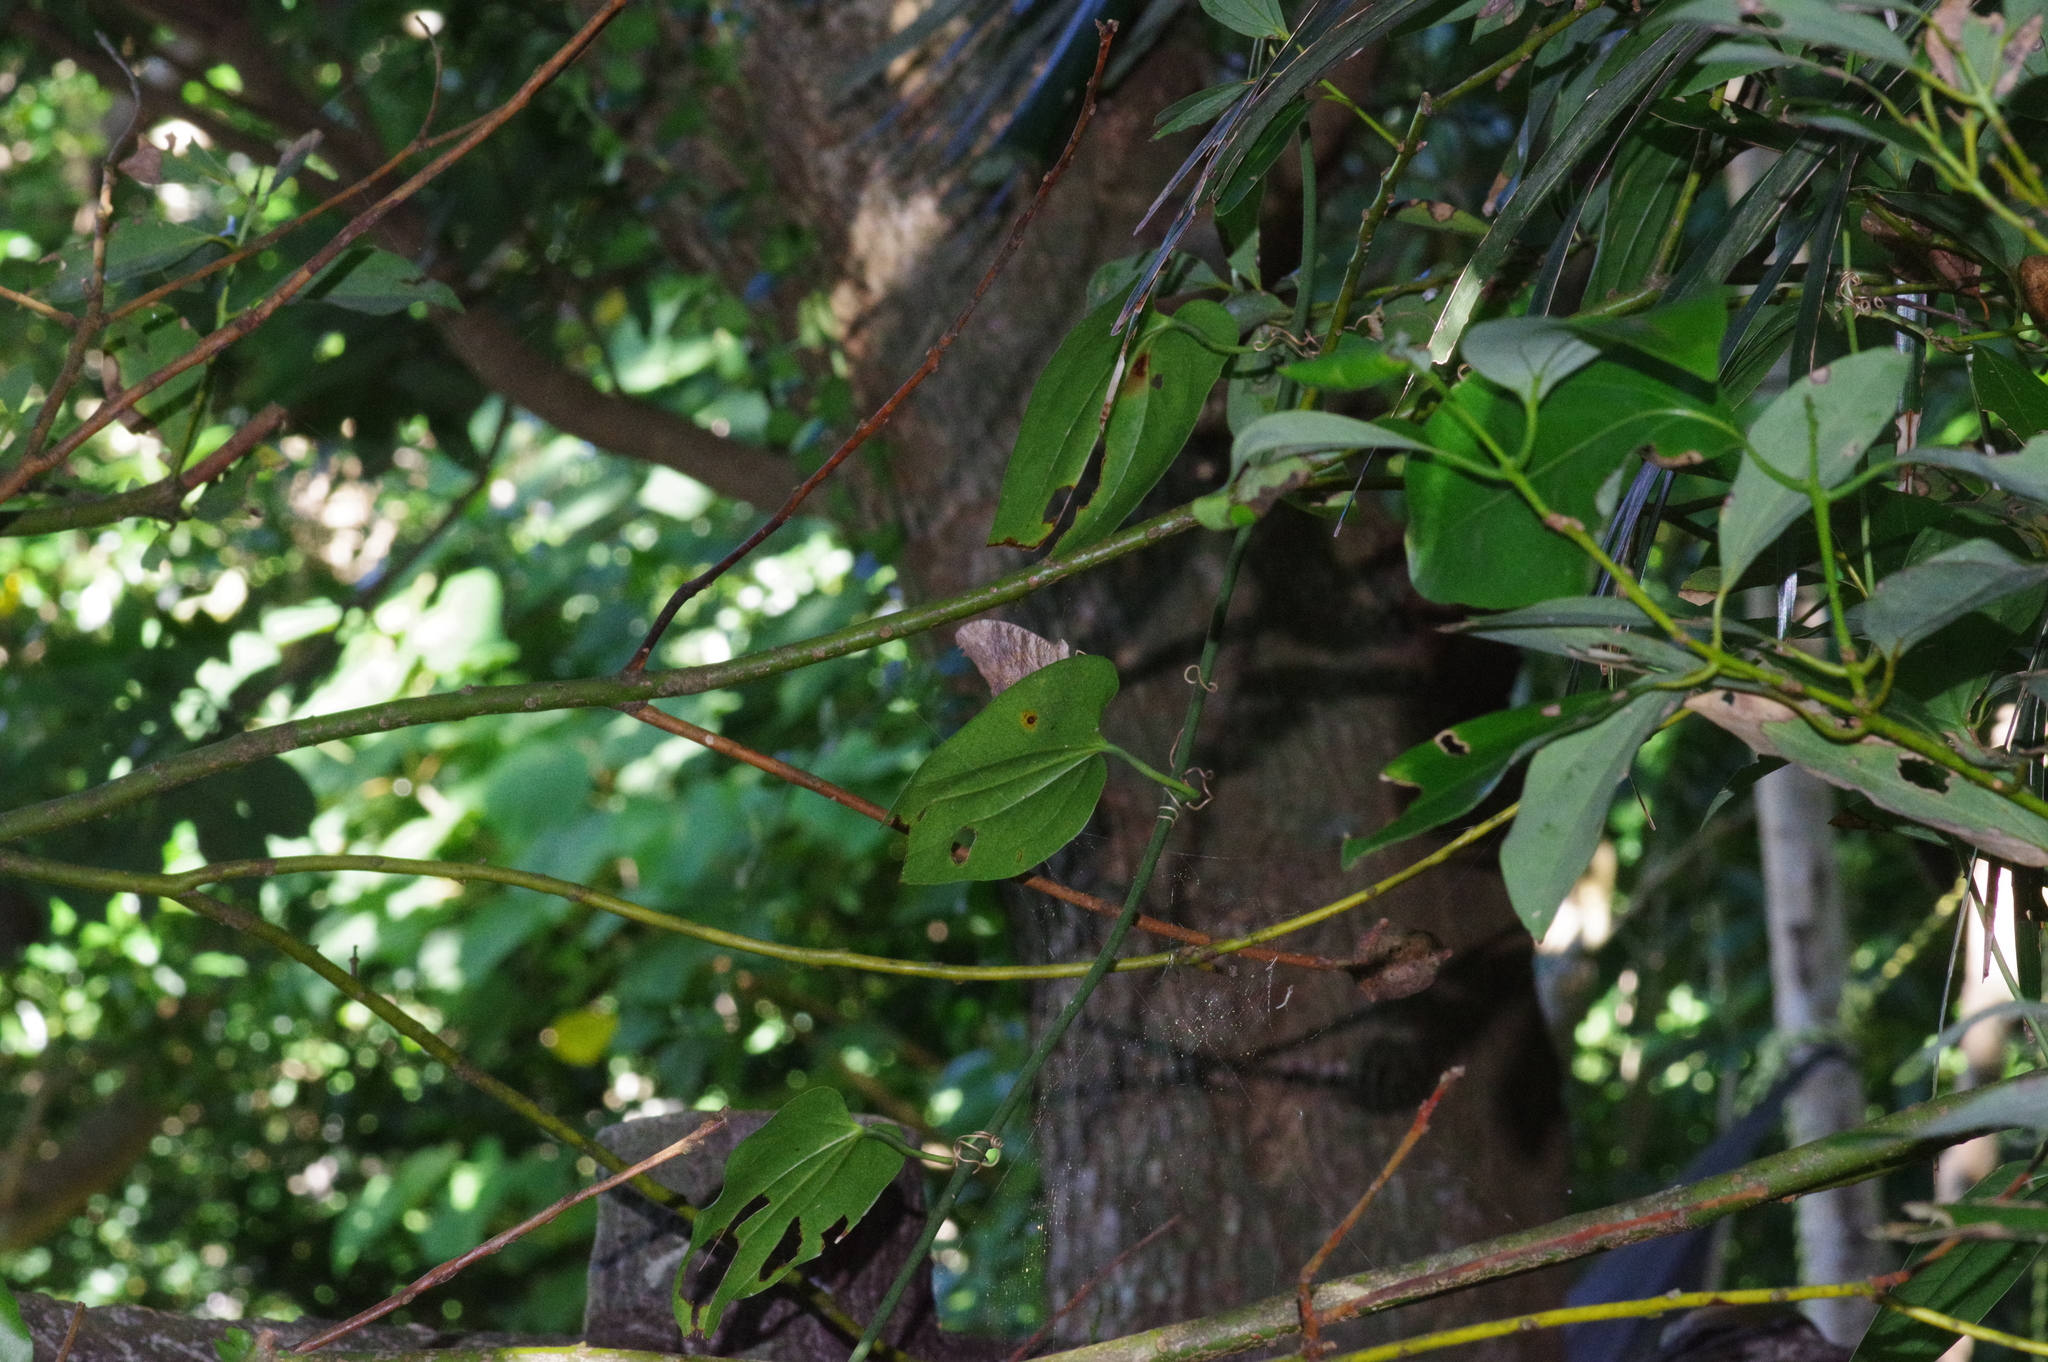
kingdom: Animalia
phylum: Arthropoda
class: Insecta
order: Lepidoptera
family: Nymphalidae
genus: Melanitis
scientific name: Melanitis leda
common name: Twilight brown
